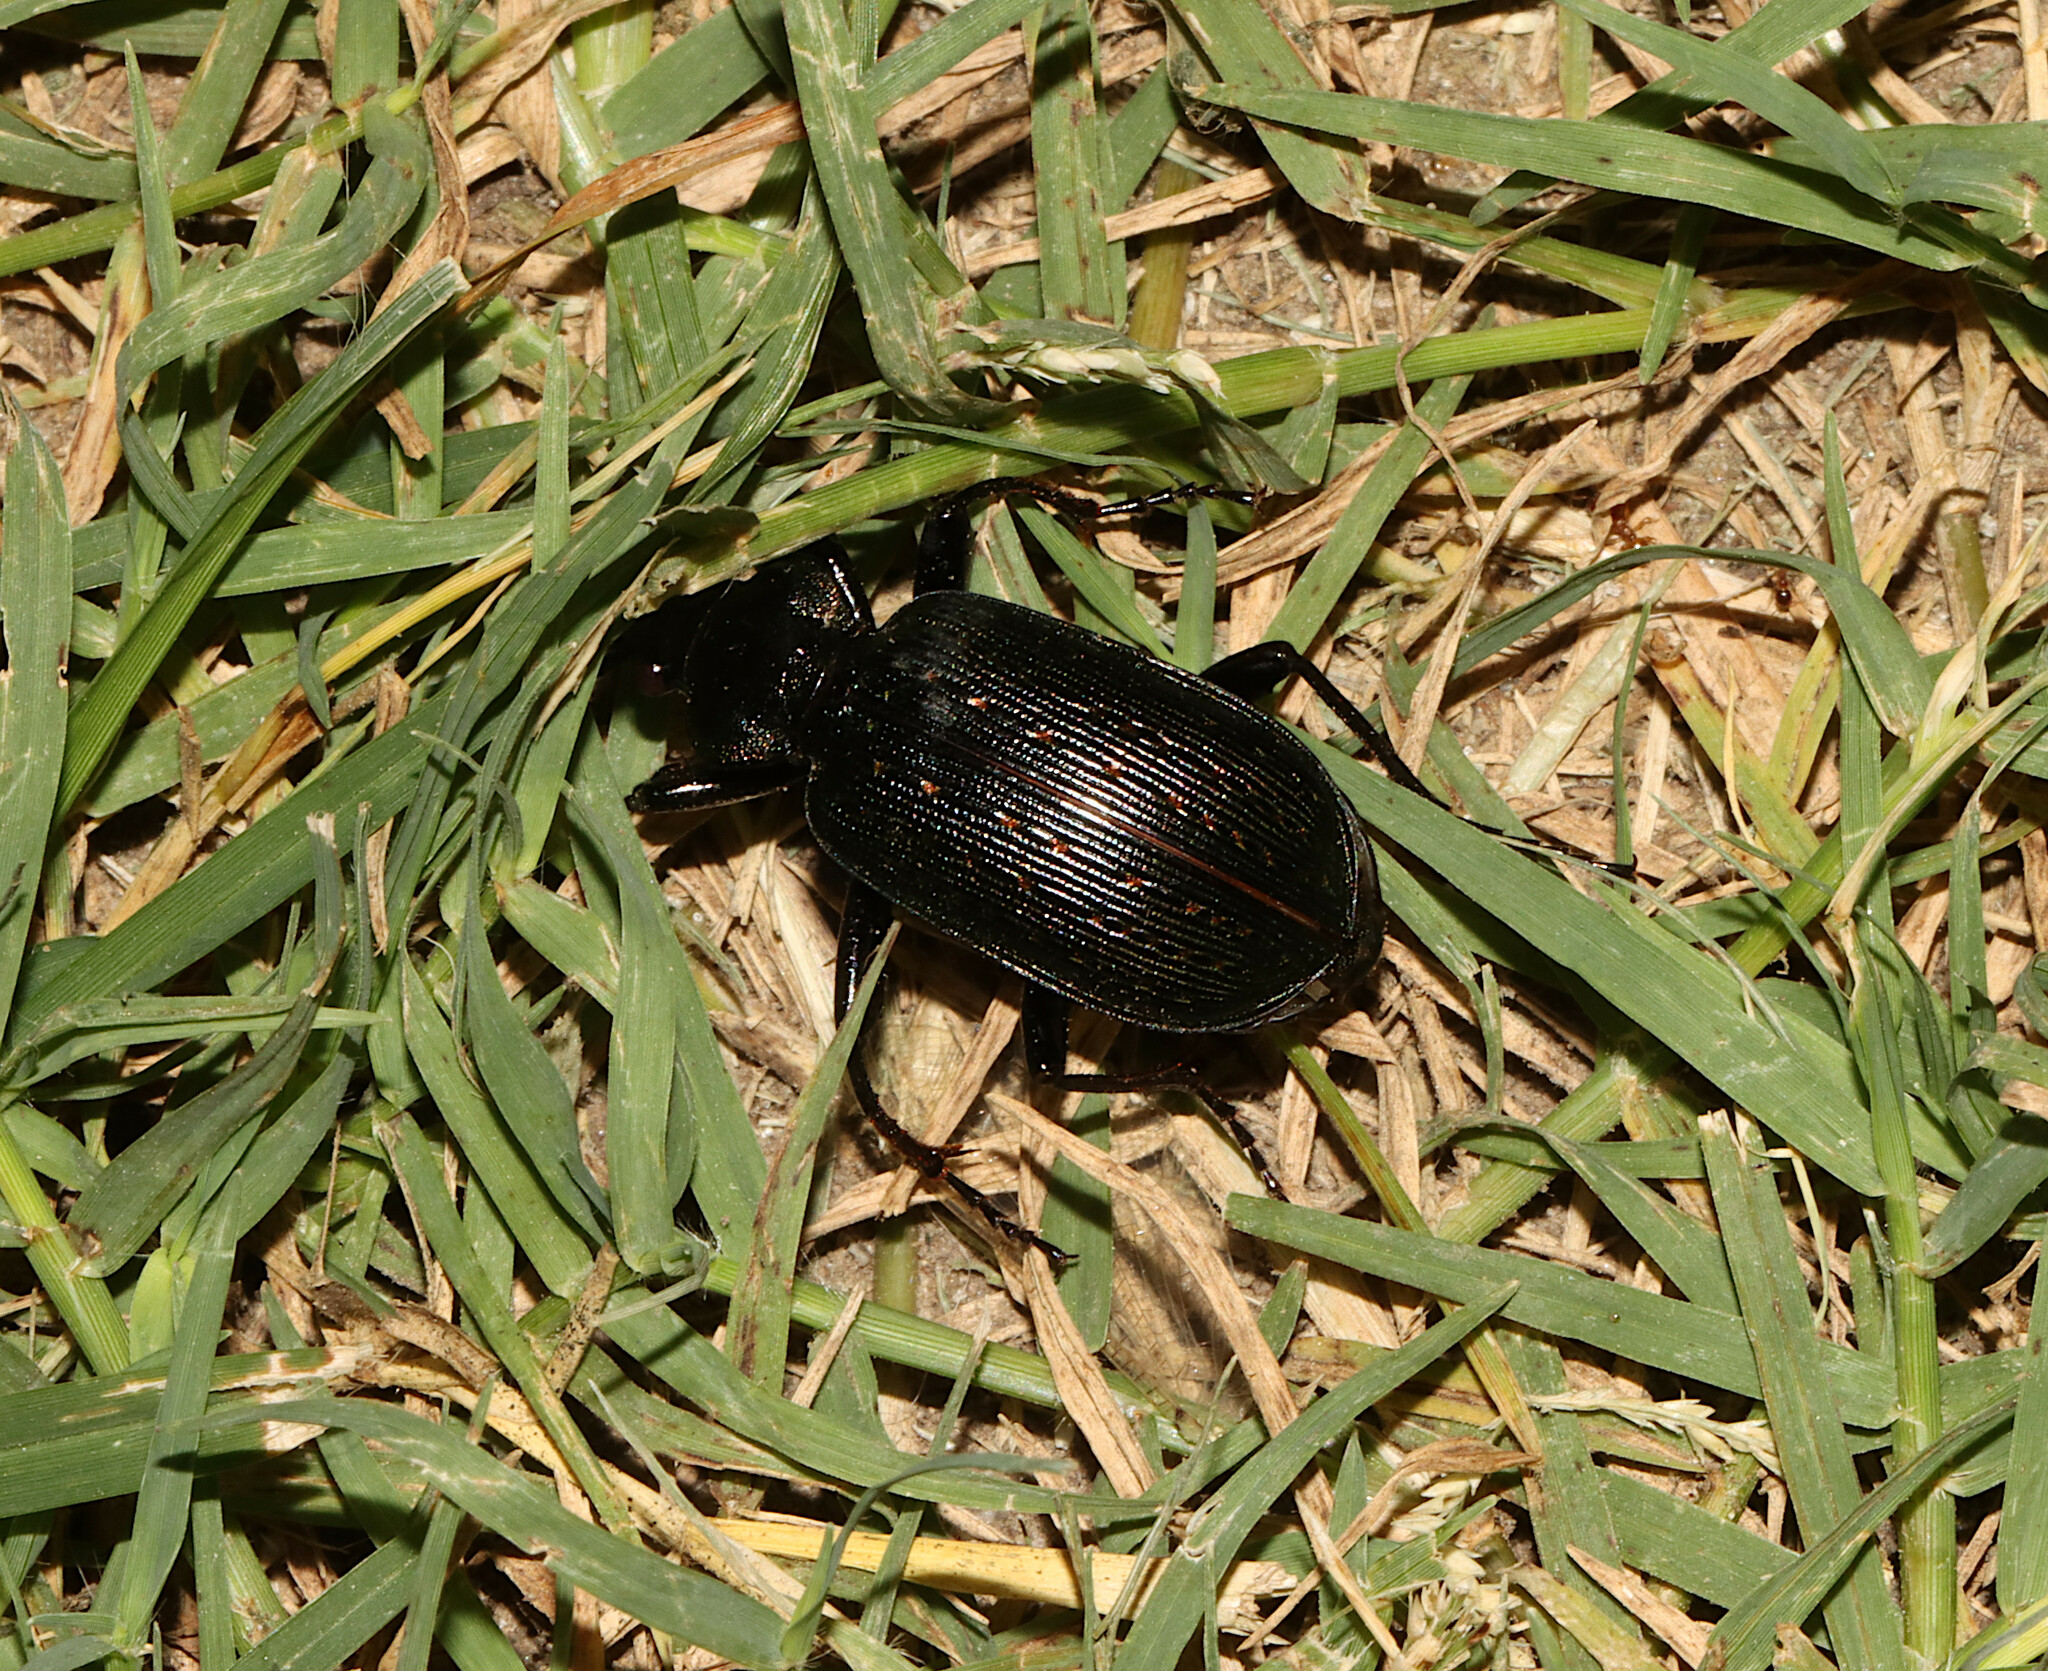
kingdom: Animalia
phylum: Arthropoda
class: Insecta
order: Coleoptera
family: Carabidae
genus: Calosoma
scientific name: Calosoma sayi
